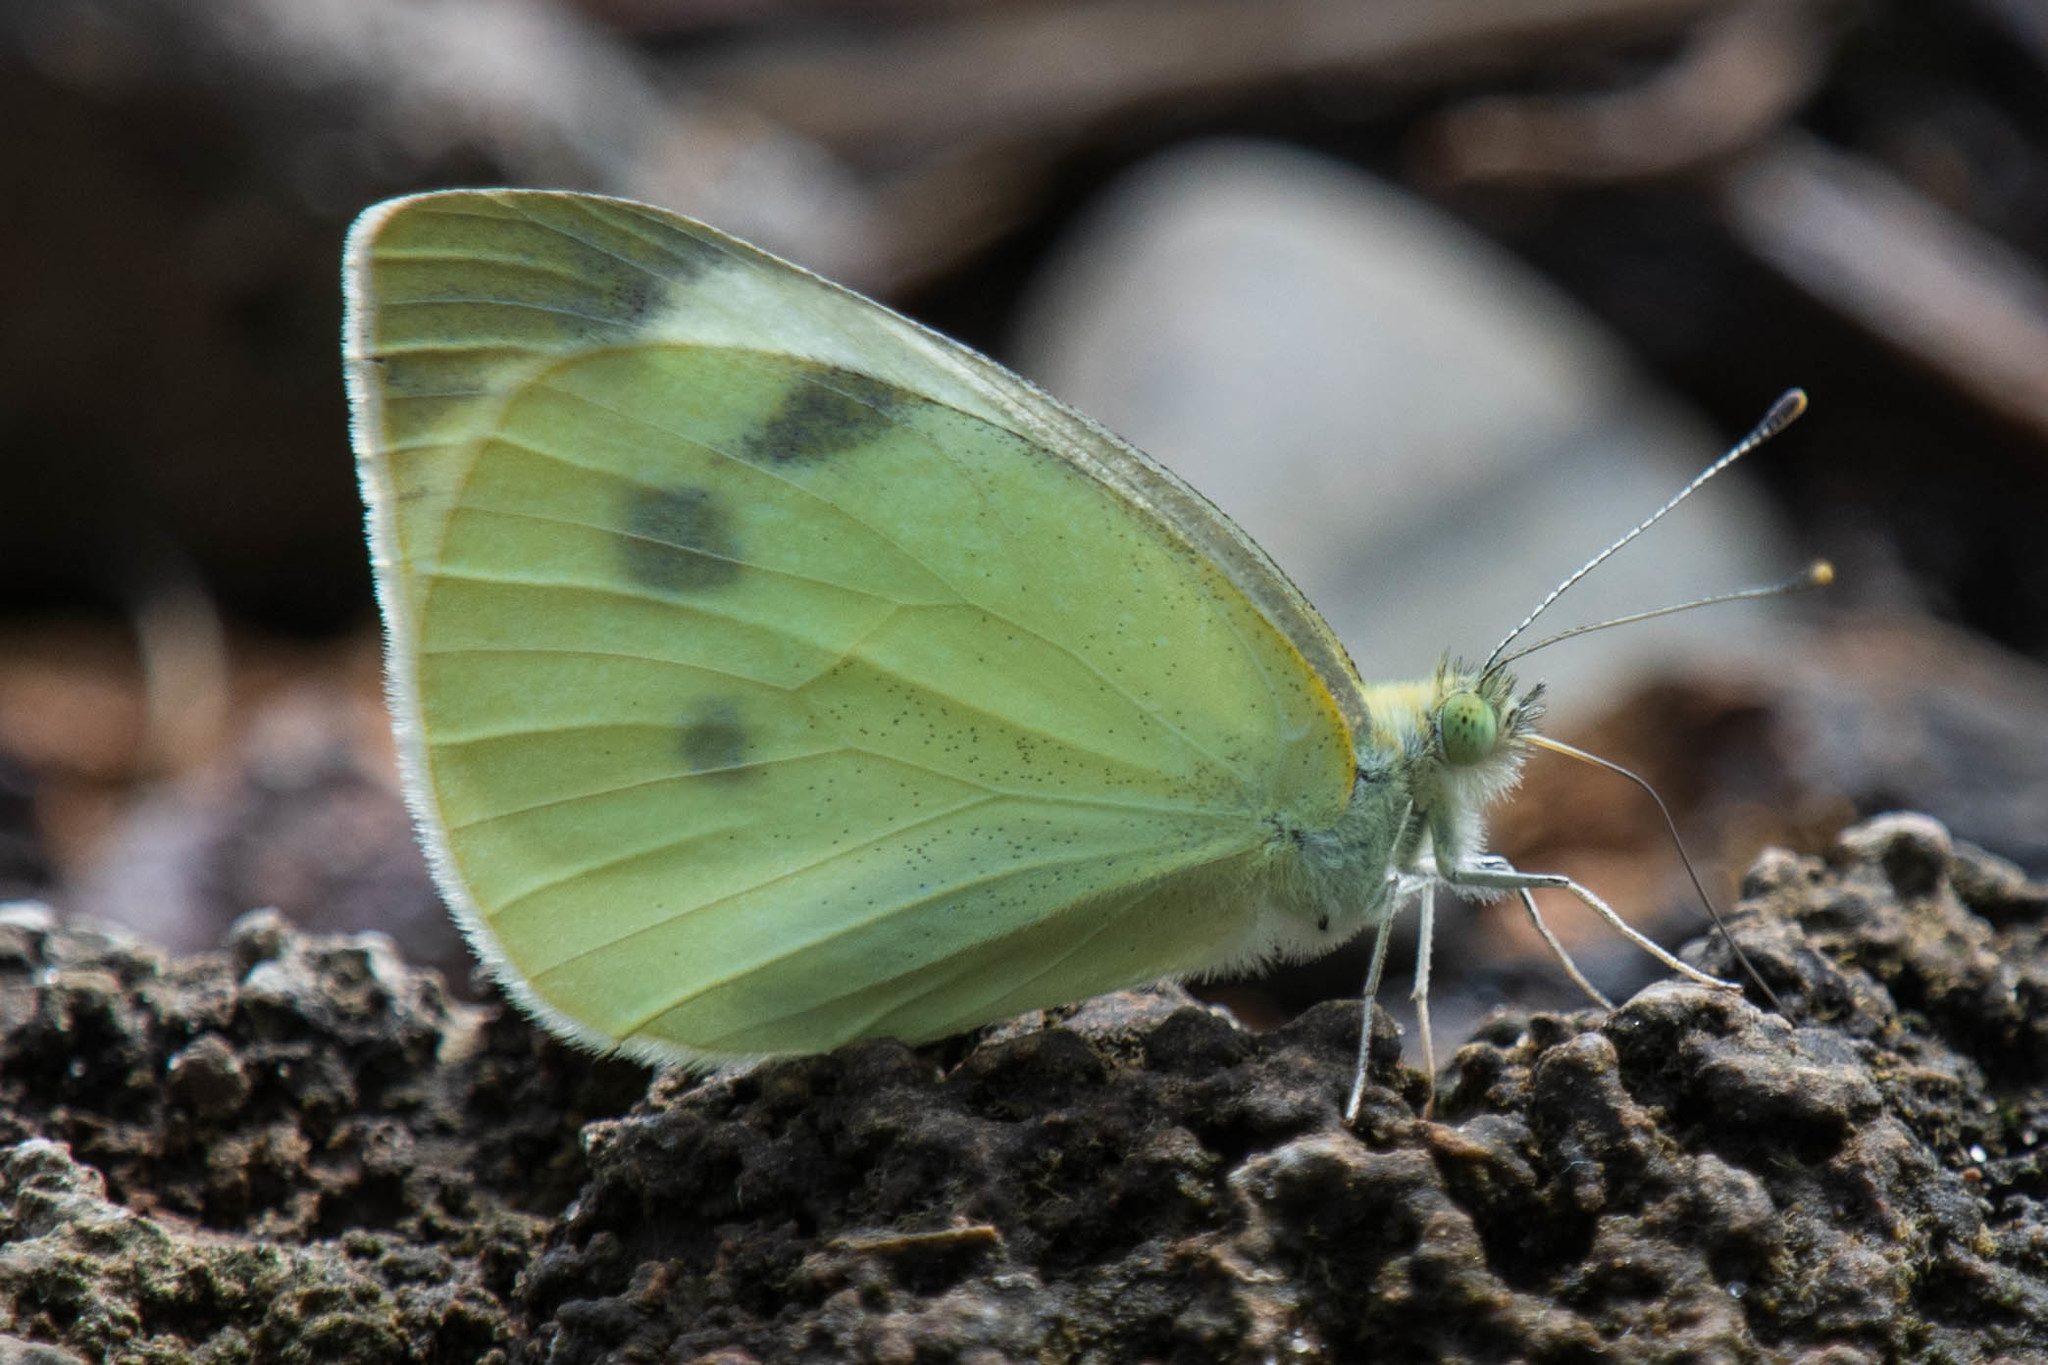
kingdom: Animalia
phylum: Arthropoda
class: Insecta
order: Lepidoptera
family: Pieridae
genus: Pieris
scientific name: Pieris rapae
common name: Small white
